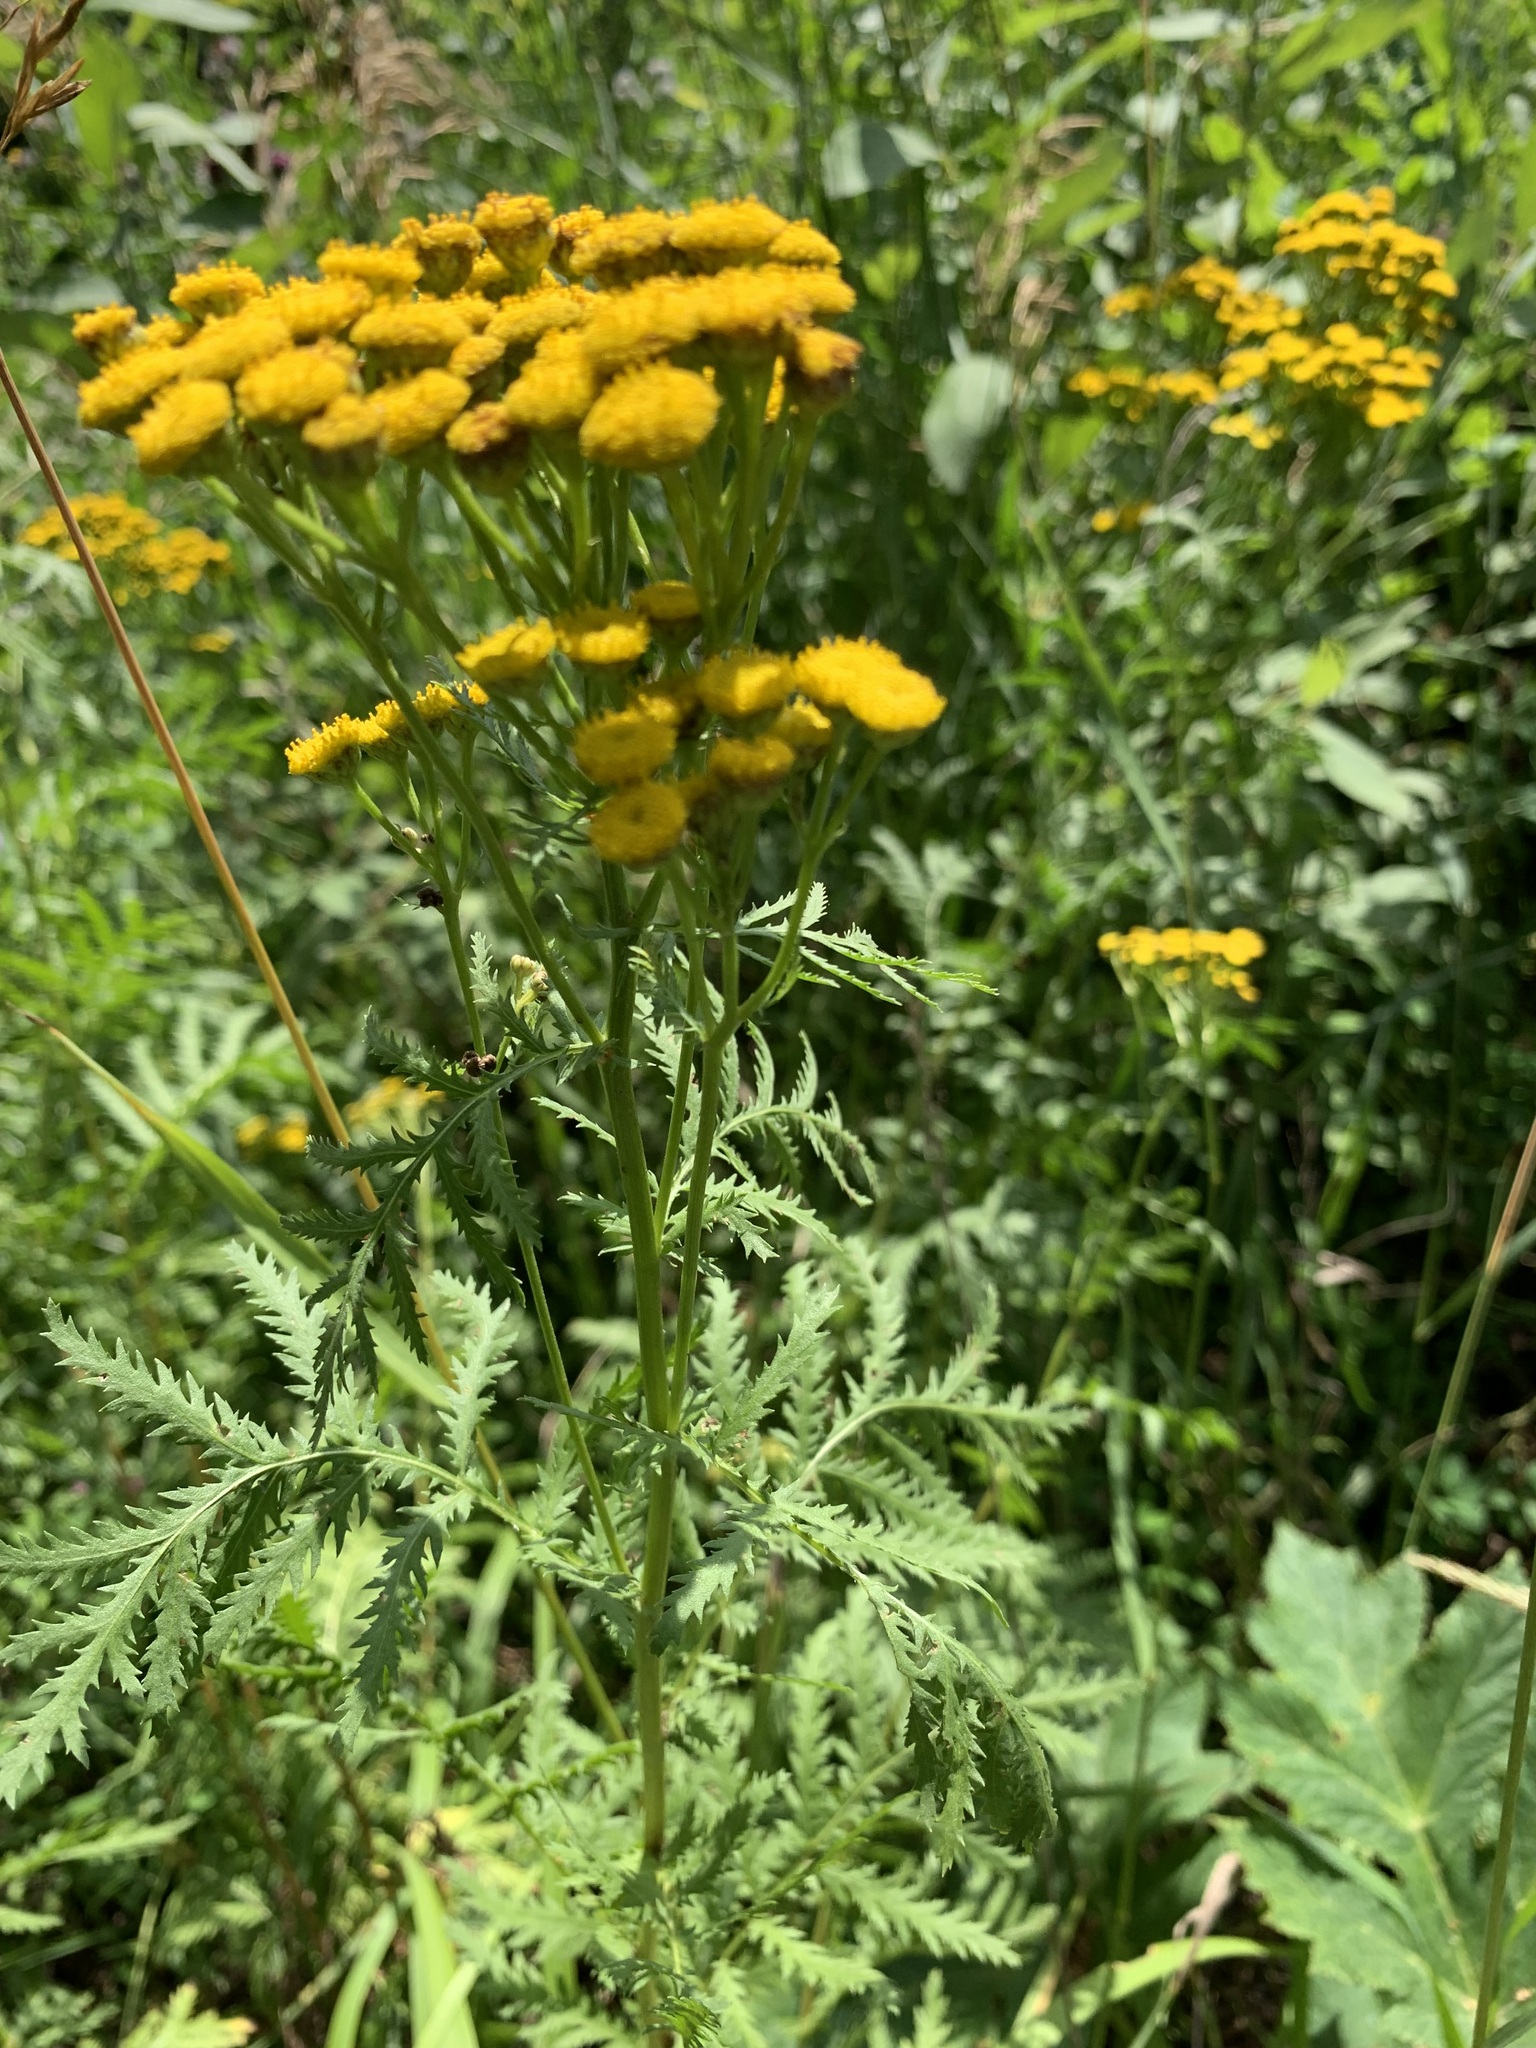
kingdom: Plantae
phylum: Tracheophyta
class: Magnoliopsida
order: Asterales
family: Asteraceae
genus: Tanacetum
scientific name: Tanacetum vulgare
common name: Common tansy
